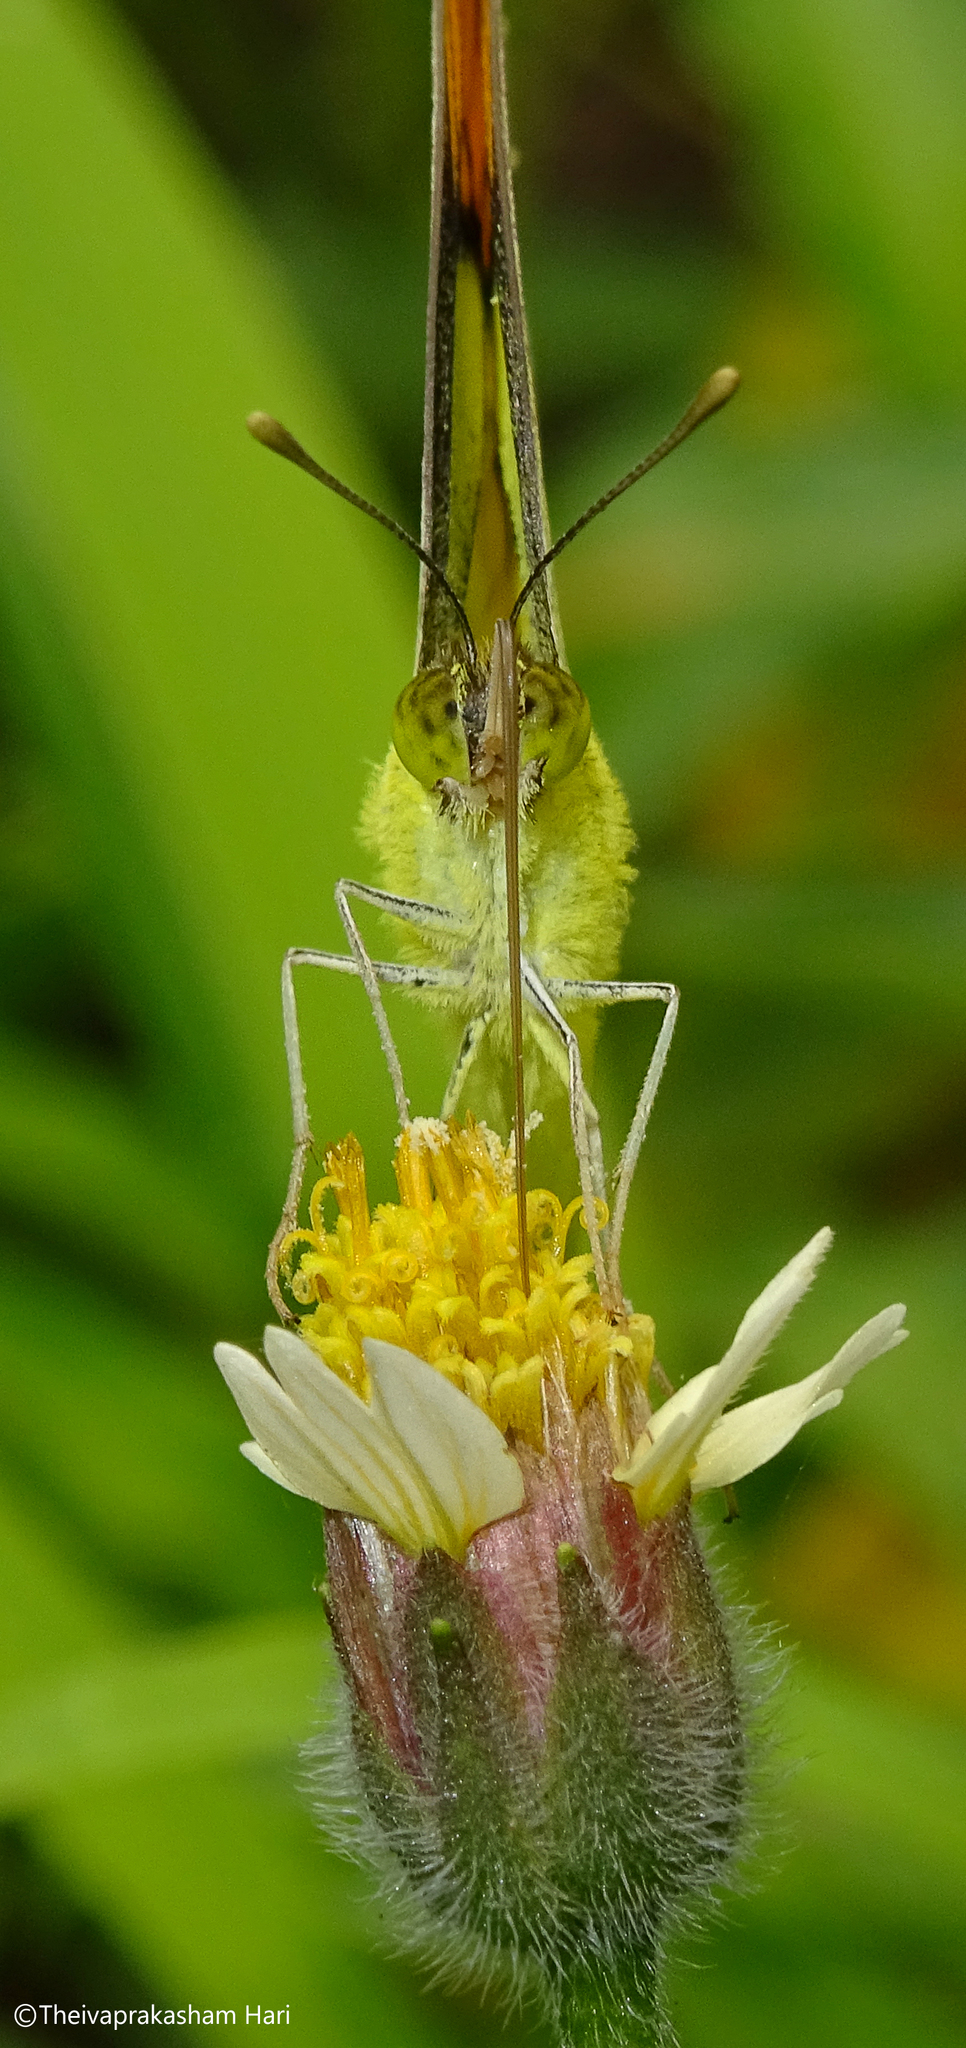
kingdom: Animalia
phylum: Arthropoda
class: Insecta
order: Lepidoptera
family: Pieridae
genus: Ixias
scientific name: Ixias pyrene
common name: Yellow orange tip
